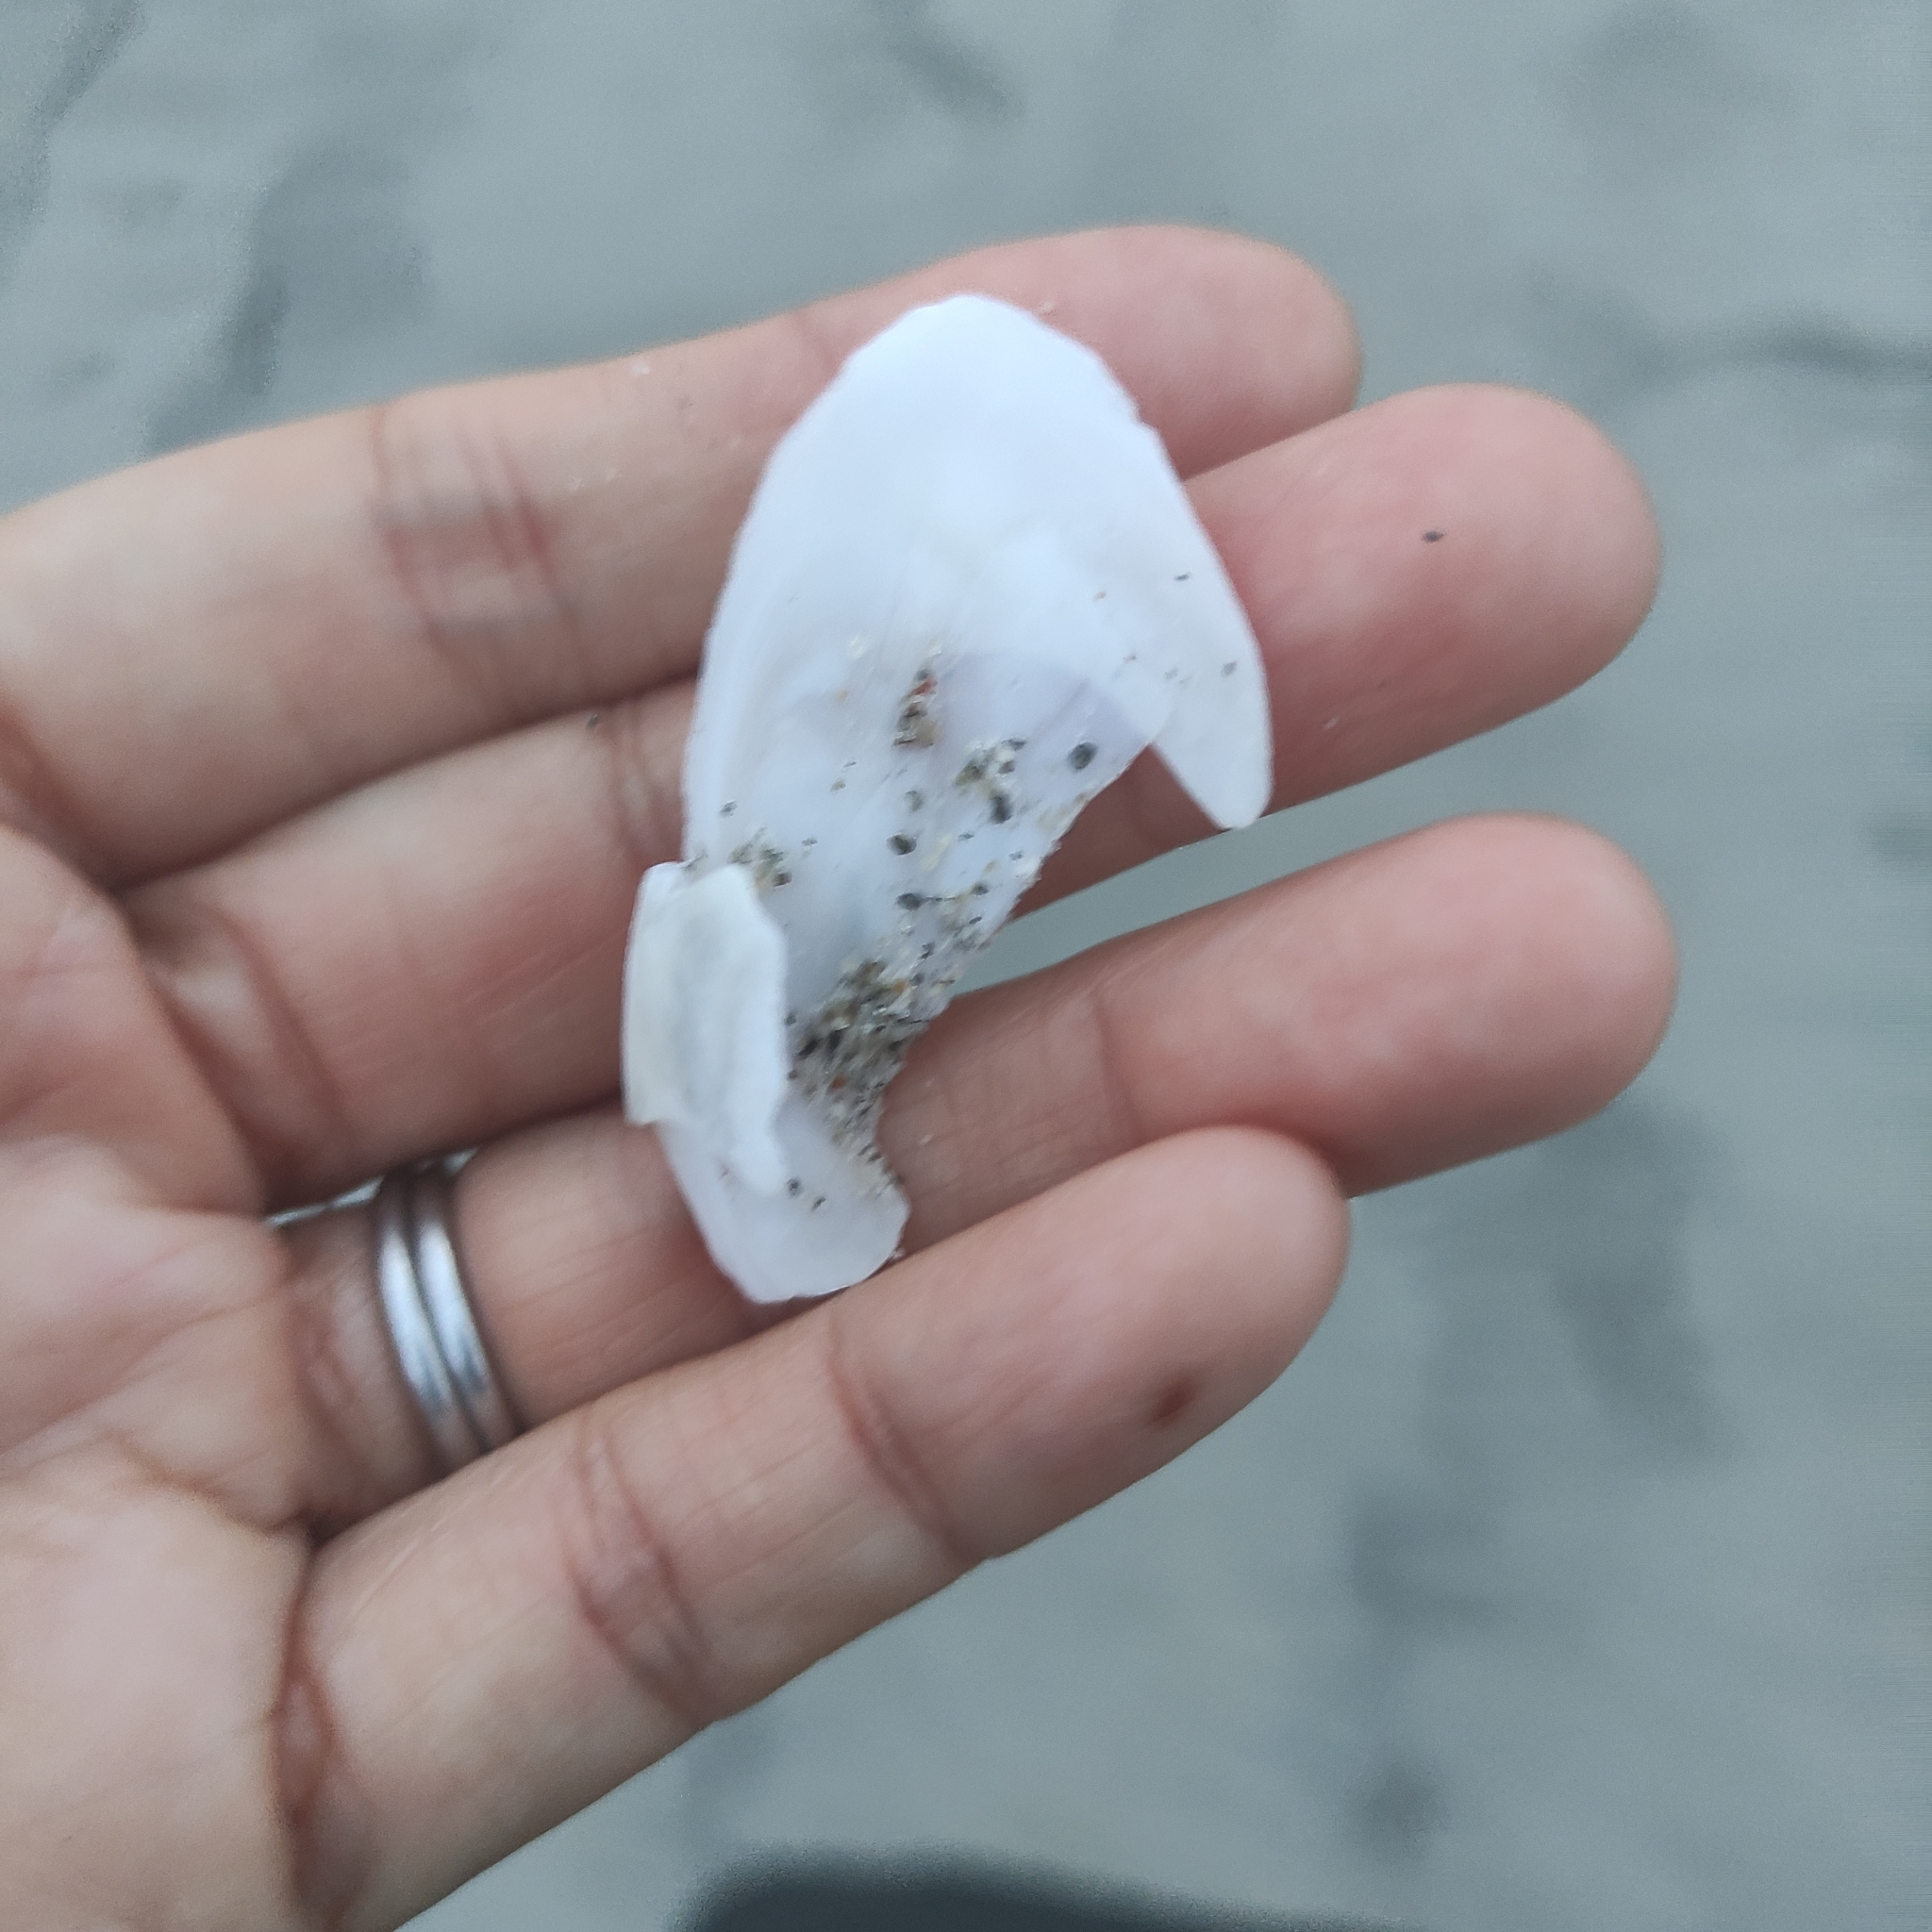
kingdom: Animalia
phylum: Mollusca
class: Bivalvia
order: Cardiida
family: Tellinidae
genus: Bartschicoma
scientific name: Bartschicoma gaimardi
